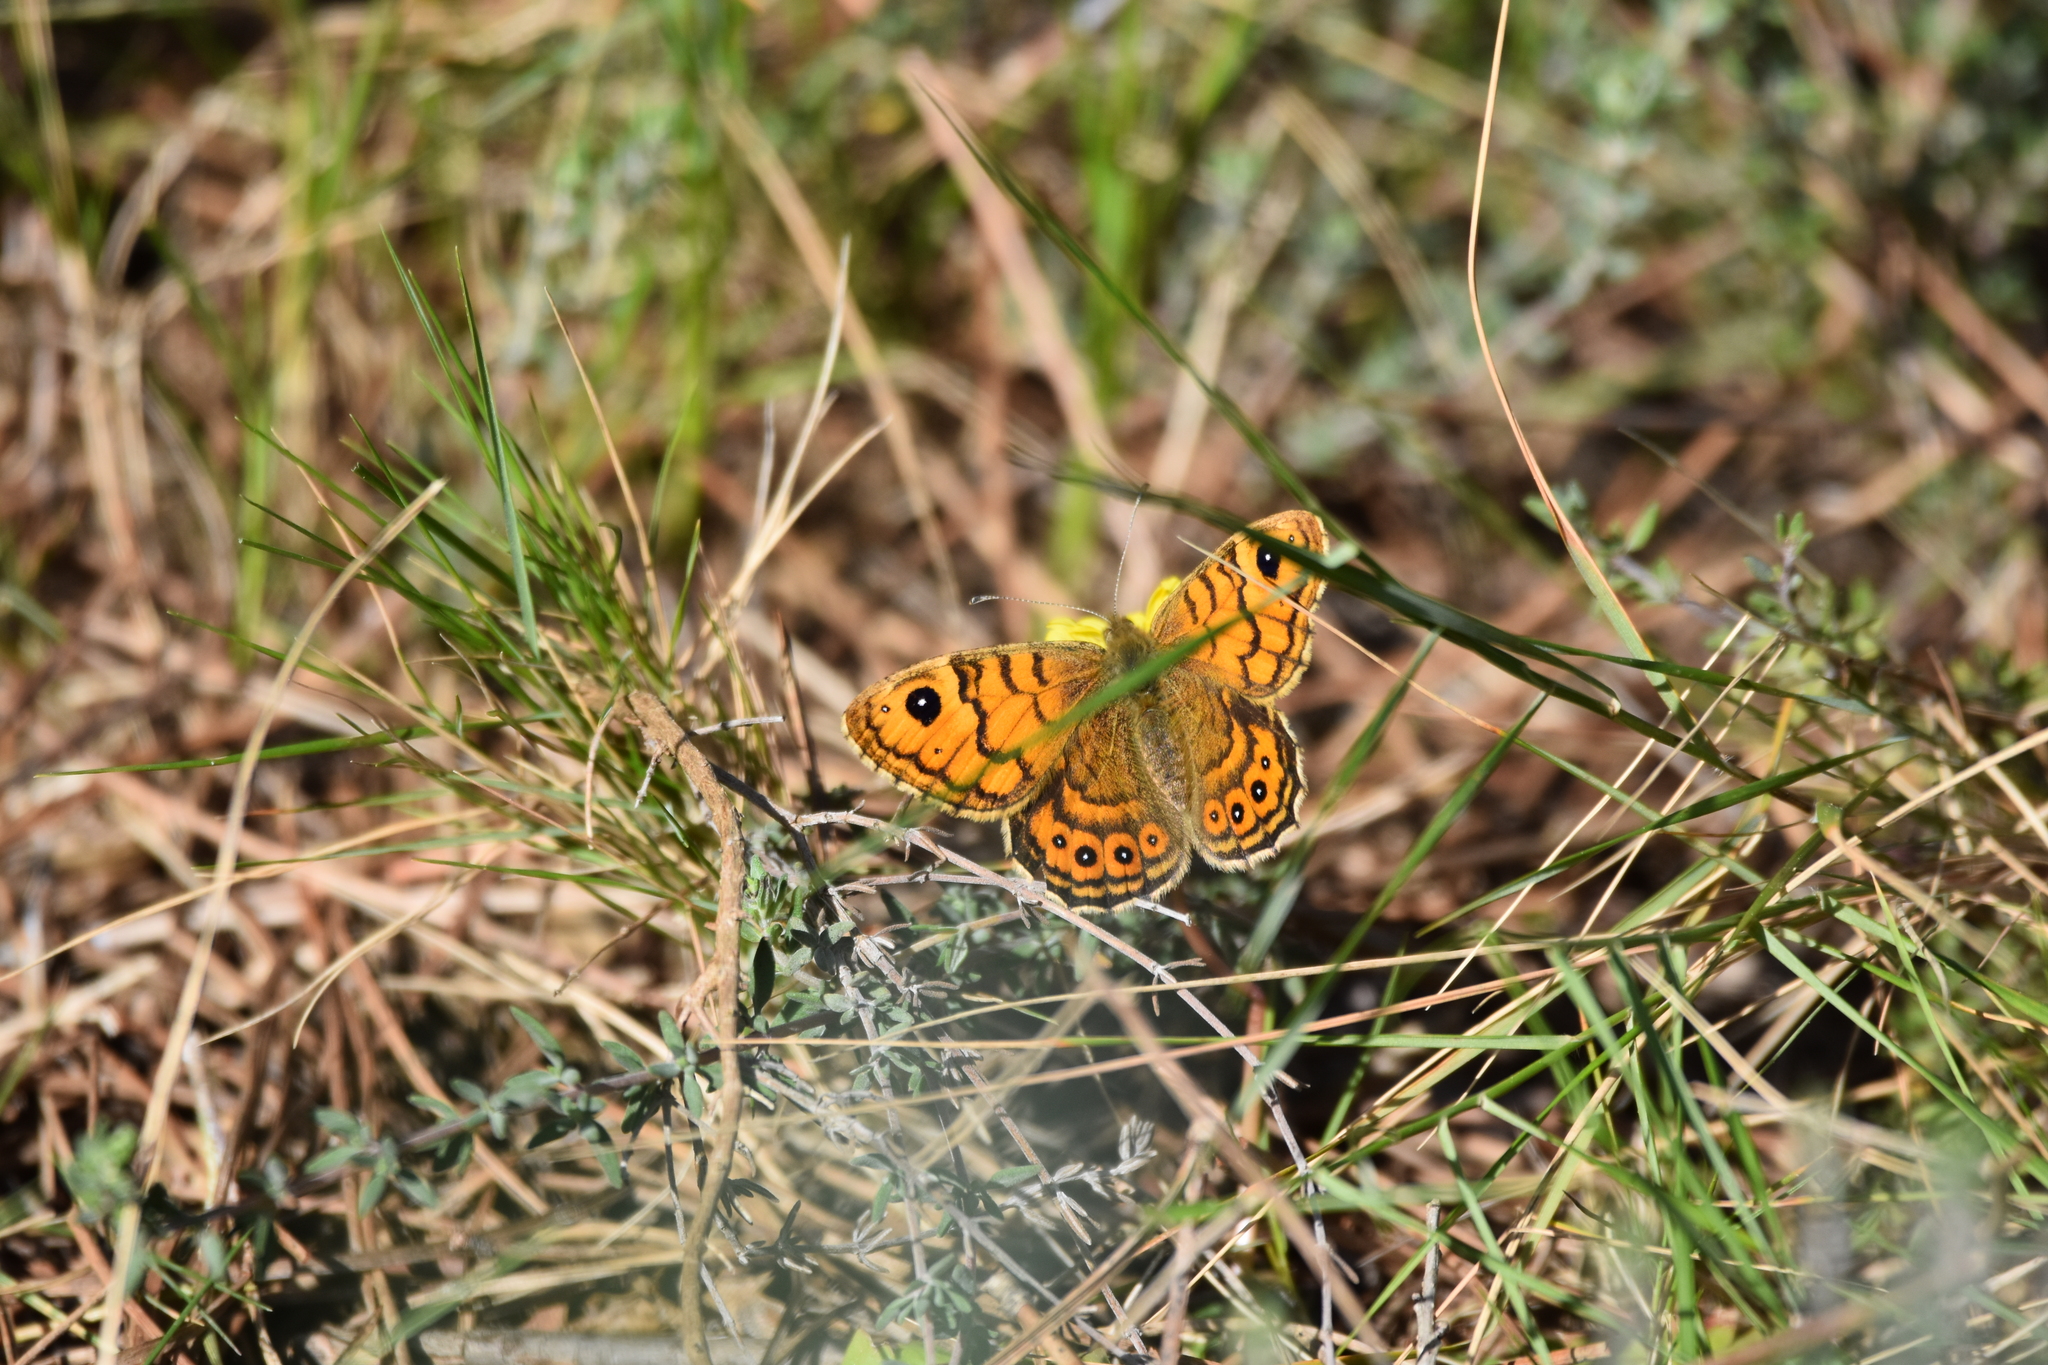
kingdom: Animalia
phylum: Arthropoda
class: Insecta
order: Lepidoptera
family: Nymphalidae
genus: Pararge
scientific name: Pararge Lasiommata megera
